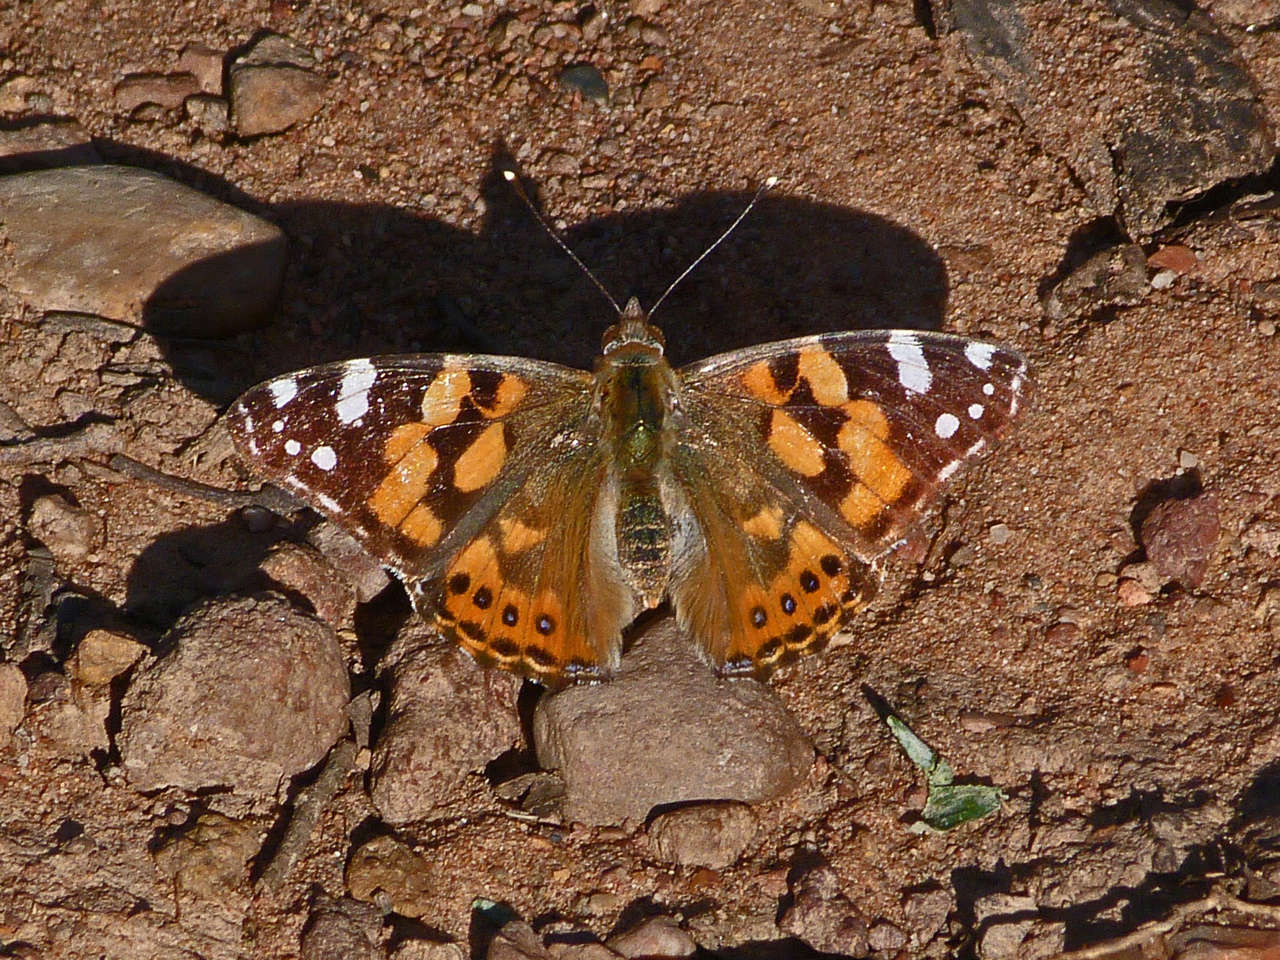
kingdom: Animalia
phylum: Arthropoda
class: Insecta
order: Lepidoptera
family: Nymphalidae
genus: Vanessa
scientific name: Vanessa kershawi
